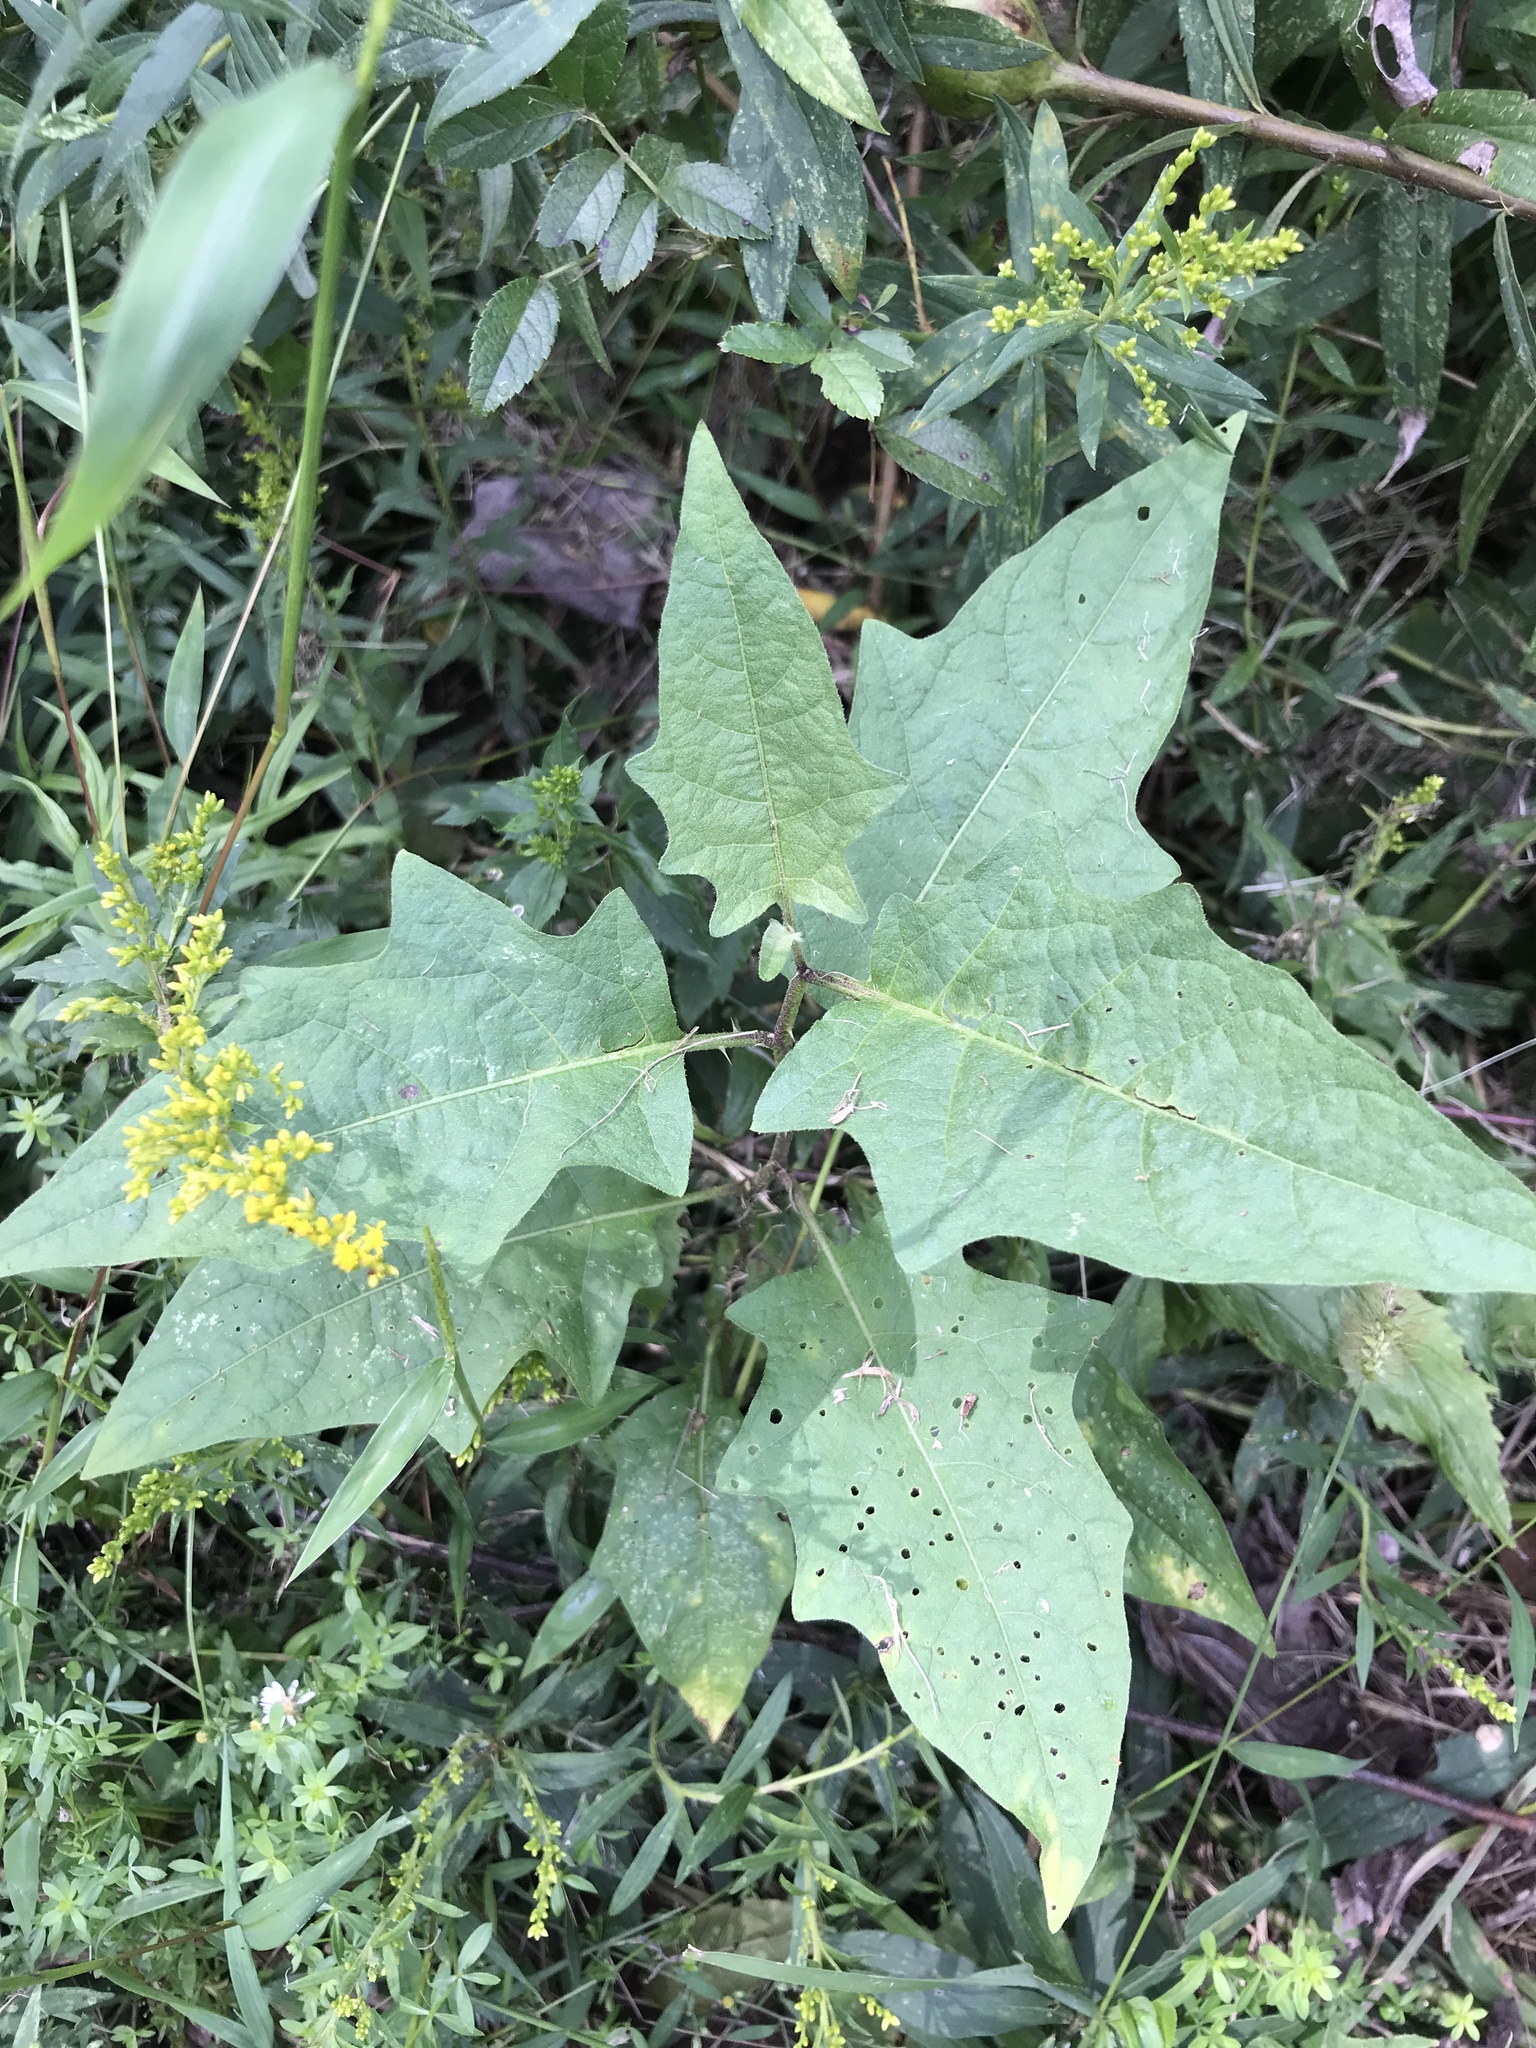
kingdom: Plantae
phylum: Tracheophyta
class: Magnoliopsida
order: Solanales
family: Solanaceae
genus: Solanum
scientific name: Solanum carolinense
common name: Horse-nettle
